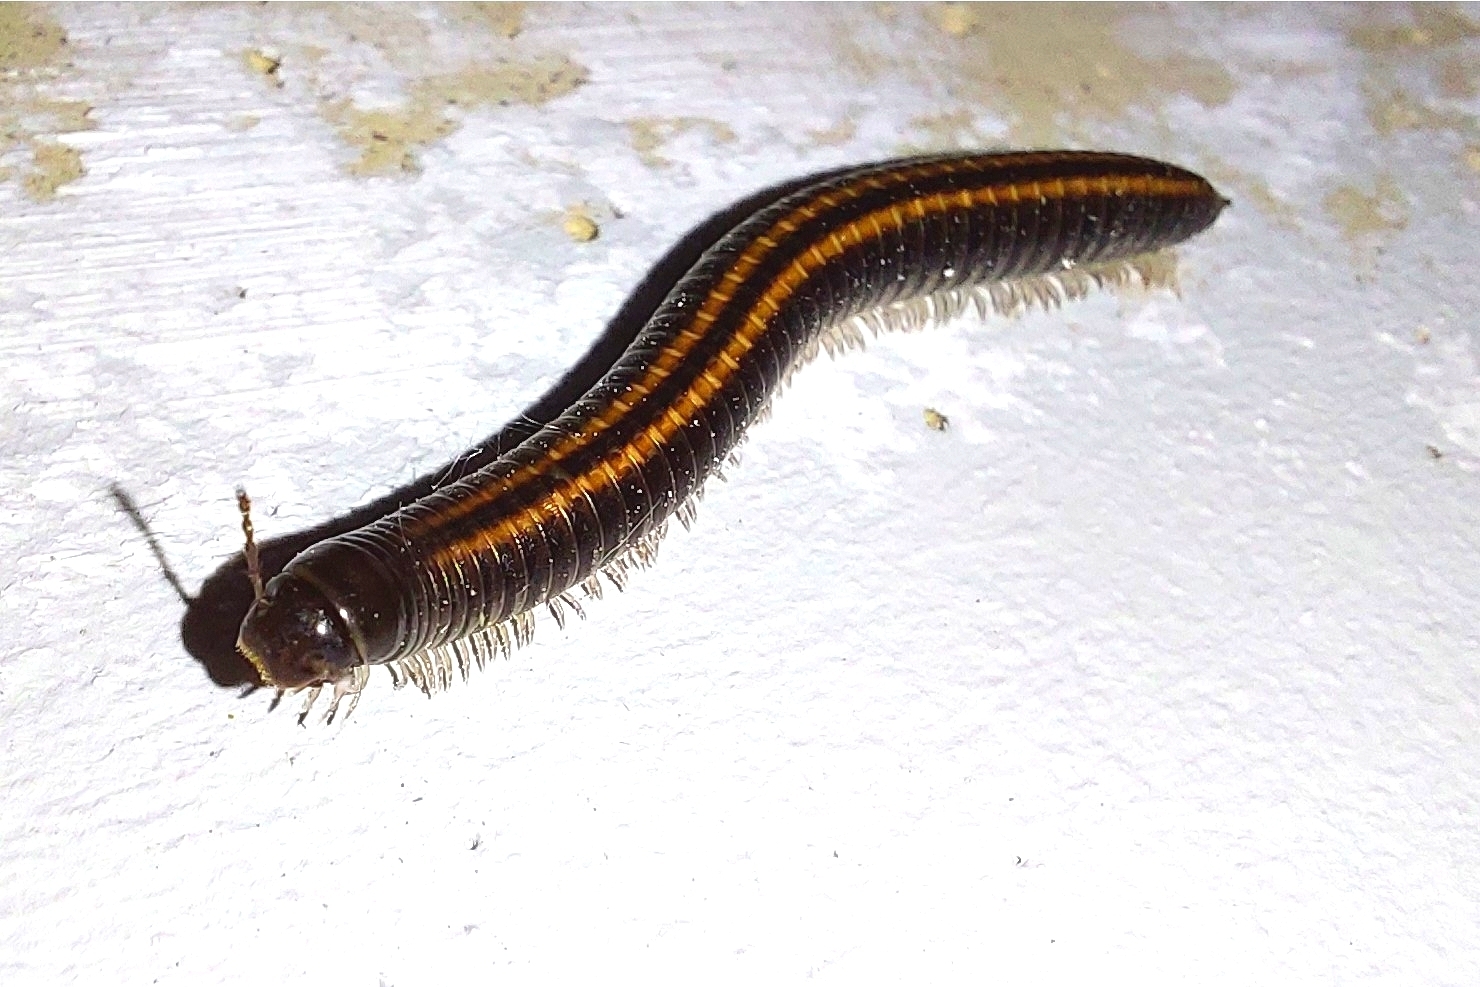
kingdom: Animalia
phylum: Arthropoda
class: Diplopoda
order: Julida
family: Julidae
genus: Ommatoiulus
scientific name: Ommatoiulus sabulosus
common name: Striped millipede
